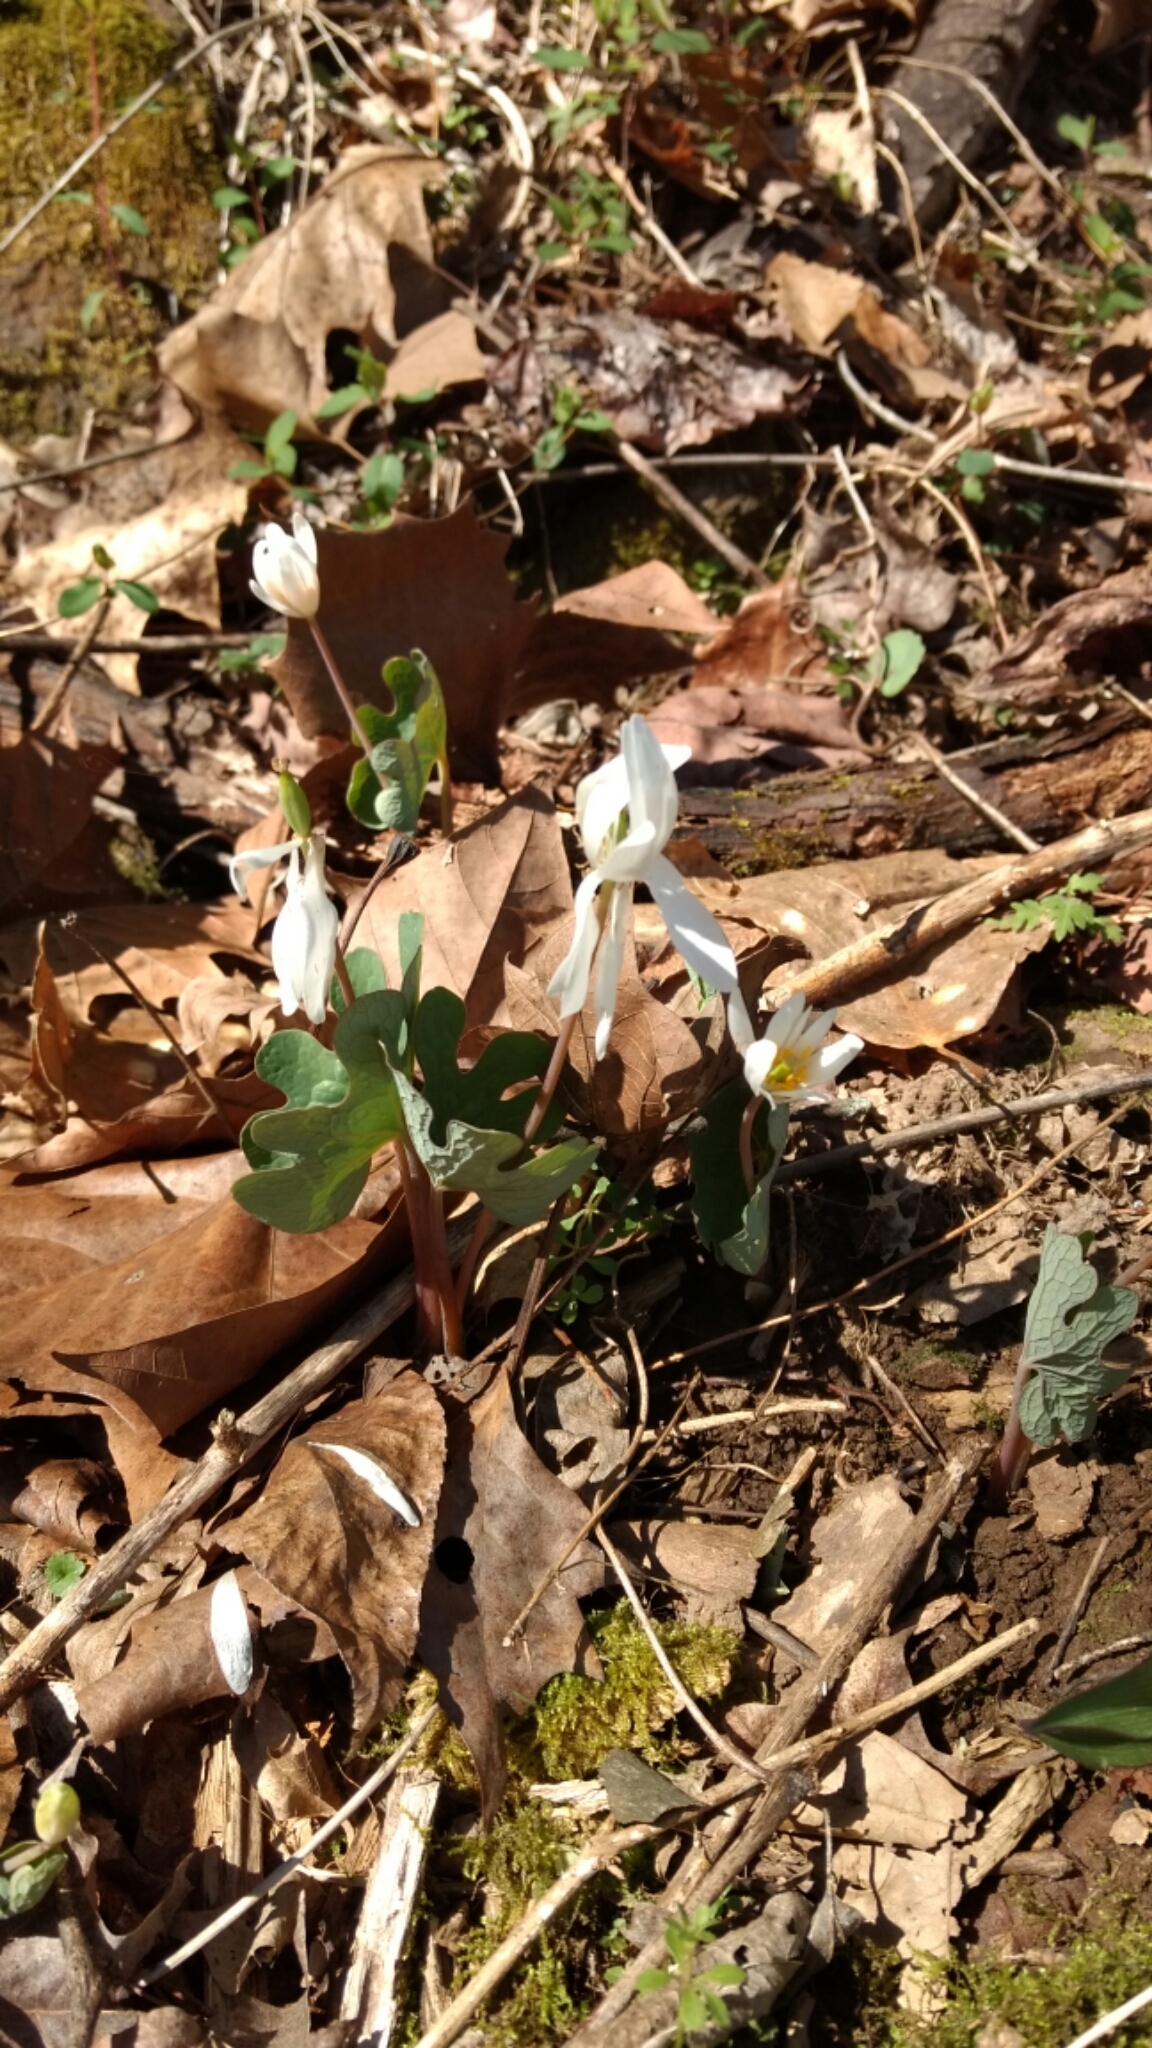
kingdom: Plantae
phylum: Tracheophyta
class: Magnoliopsida
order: Ranunculales
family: Papaveraceae
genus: Sanguinaria
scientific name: Sanguinaria canadensis
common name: Bloodroot
